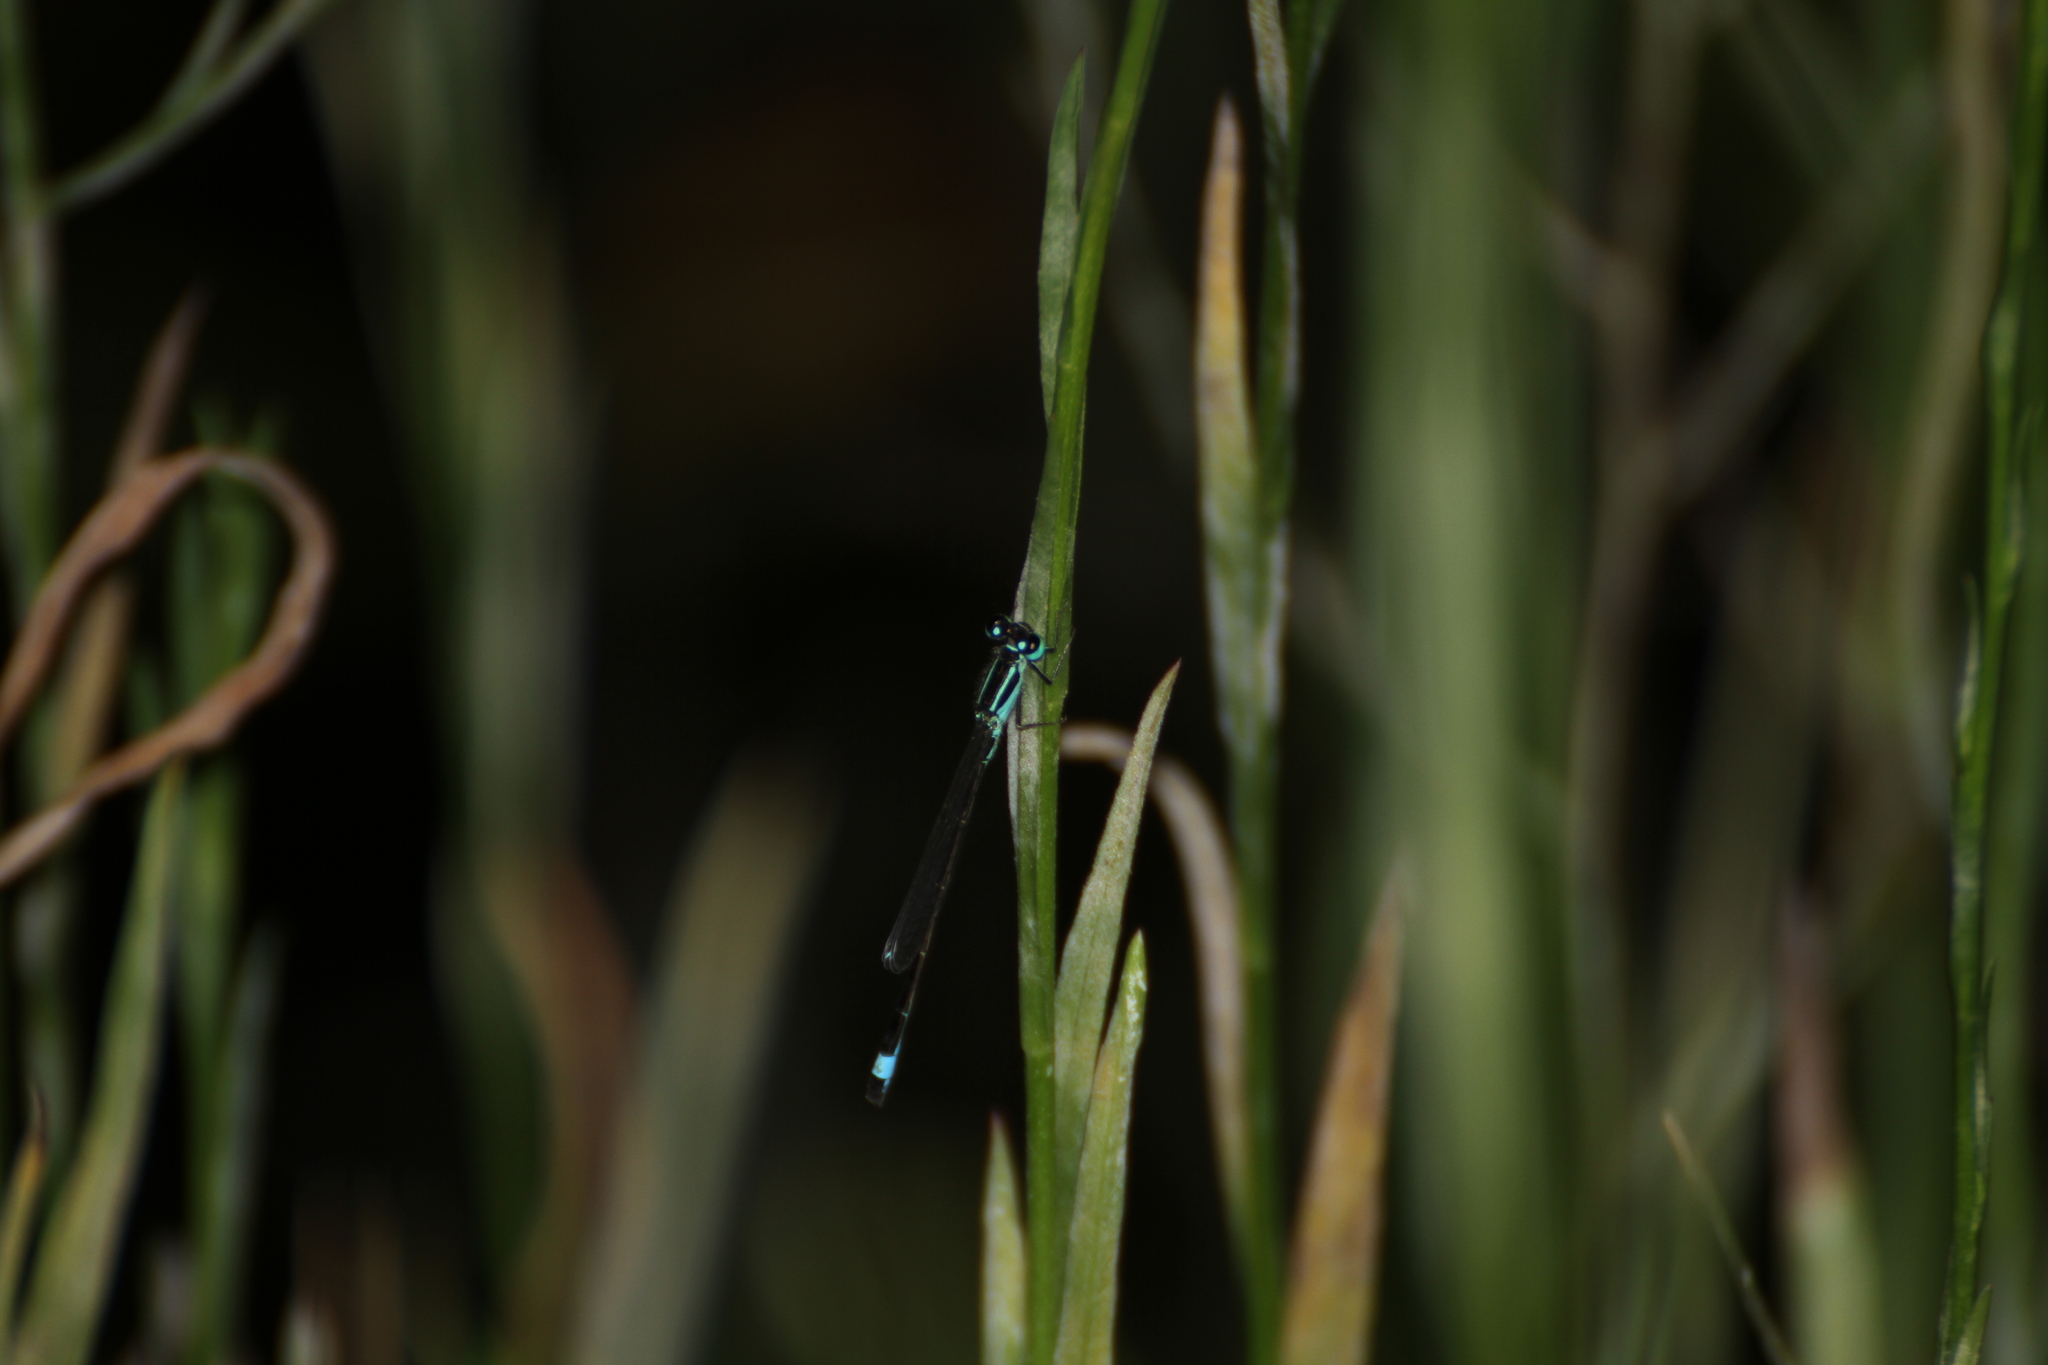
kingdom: Animalia
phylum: Arthropoda
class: Insecta
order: Odonata
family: Coenagrionidae
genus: Ischnura
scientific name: Ischnura elegans
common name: Blue-tailed damselfly
